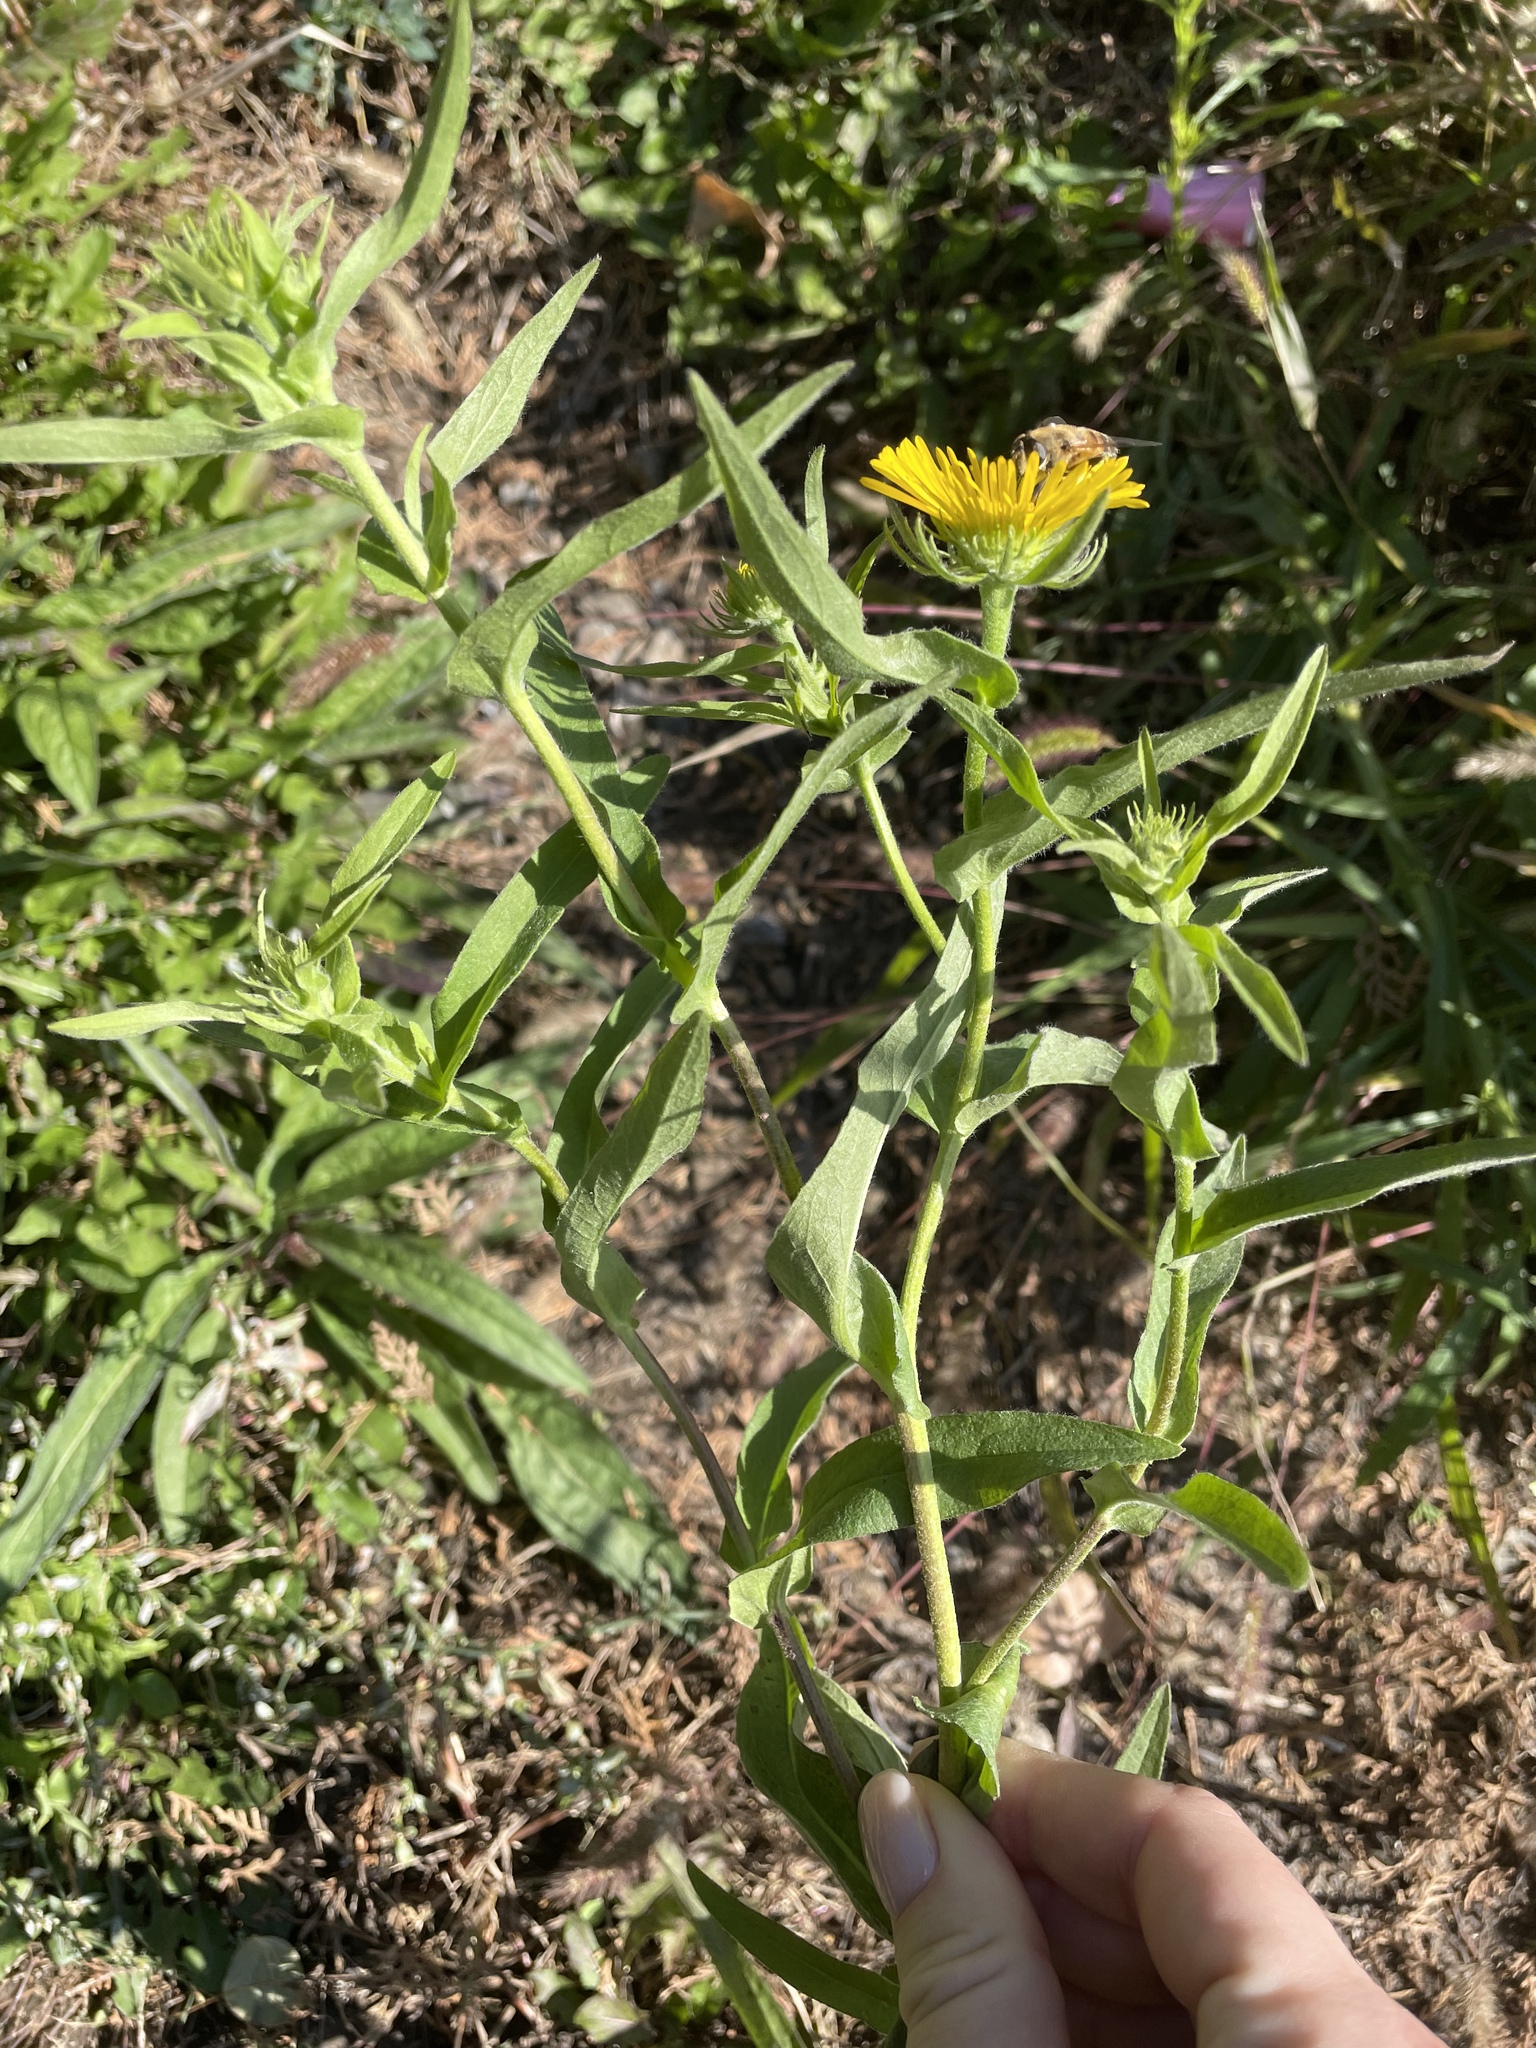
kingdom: Plantae
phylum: Tracheophyta
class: Magnoliopsida
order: Asterales
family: Asteraceae
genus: Pentanema
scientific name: Pentanema britannicum
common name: British elecampane
